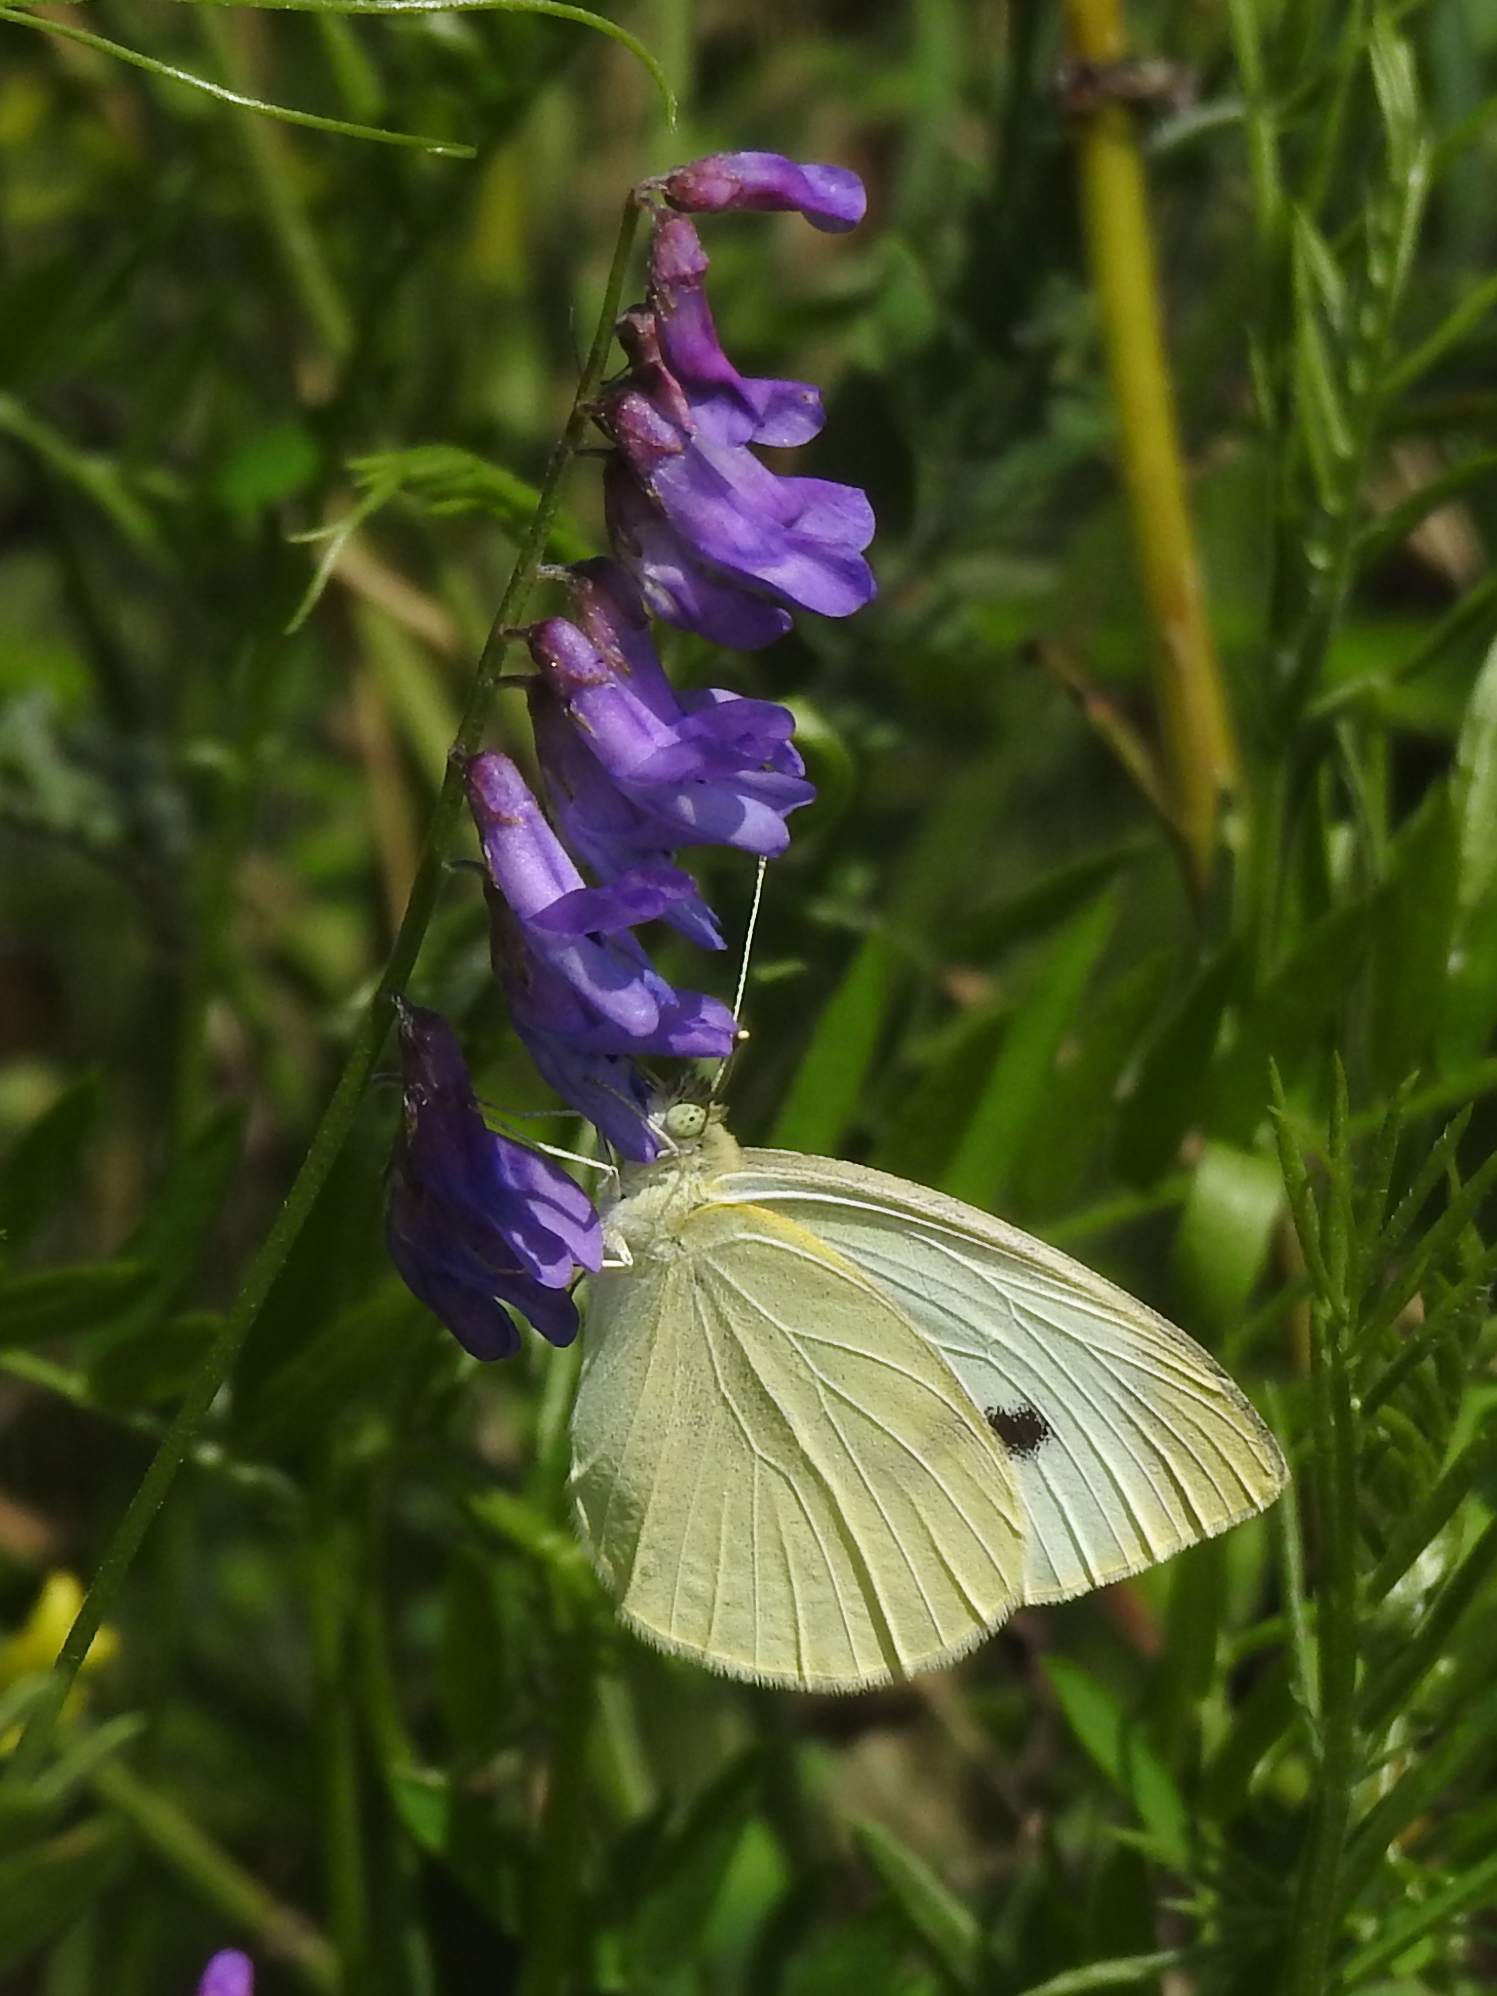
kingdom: Animalia
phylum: Arthropoda
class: Insecta
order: Lepidoptera
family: Pieridae
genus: Pieris
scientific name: Pieris rapae
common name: Small white
